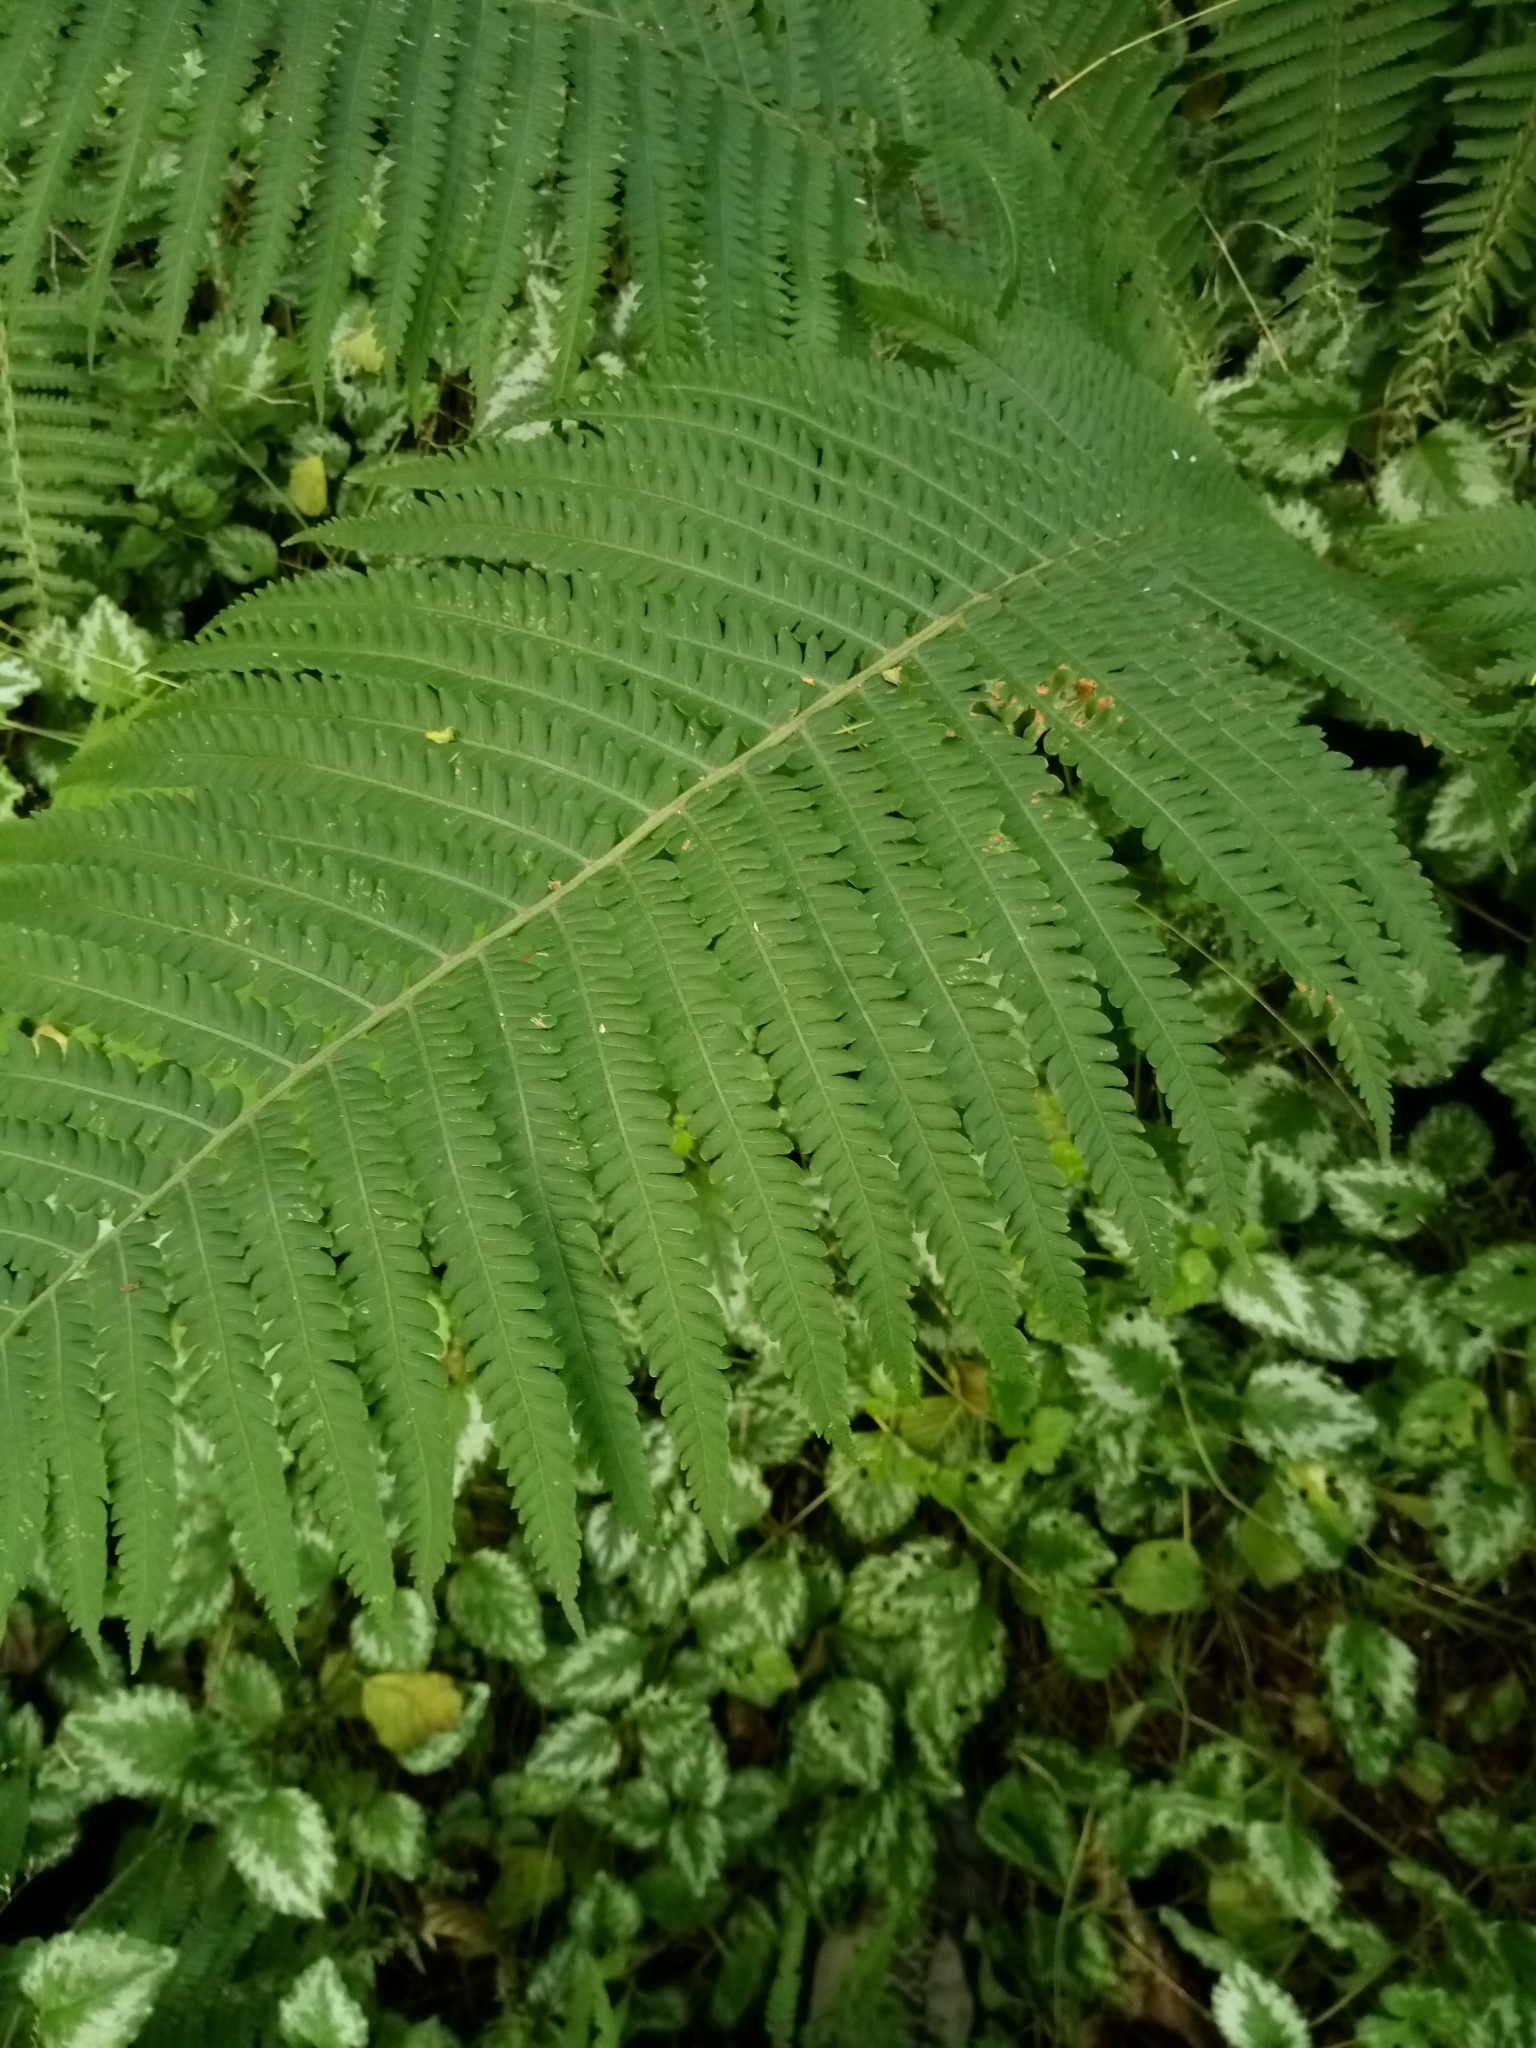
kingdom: Plantae
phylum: Tracheophyta
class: Polypodiopsida
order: Polypodiales
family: Onocleaceae
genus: Matteuccia
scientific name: Matteuccia struthiopteris
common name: Ostrich fern
